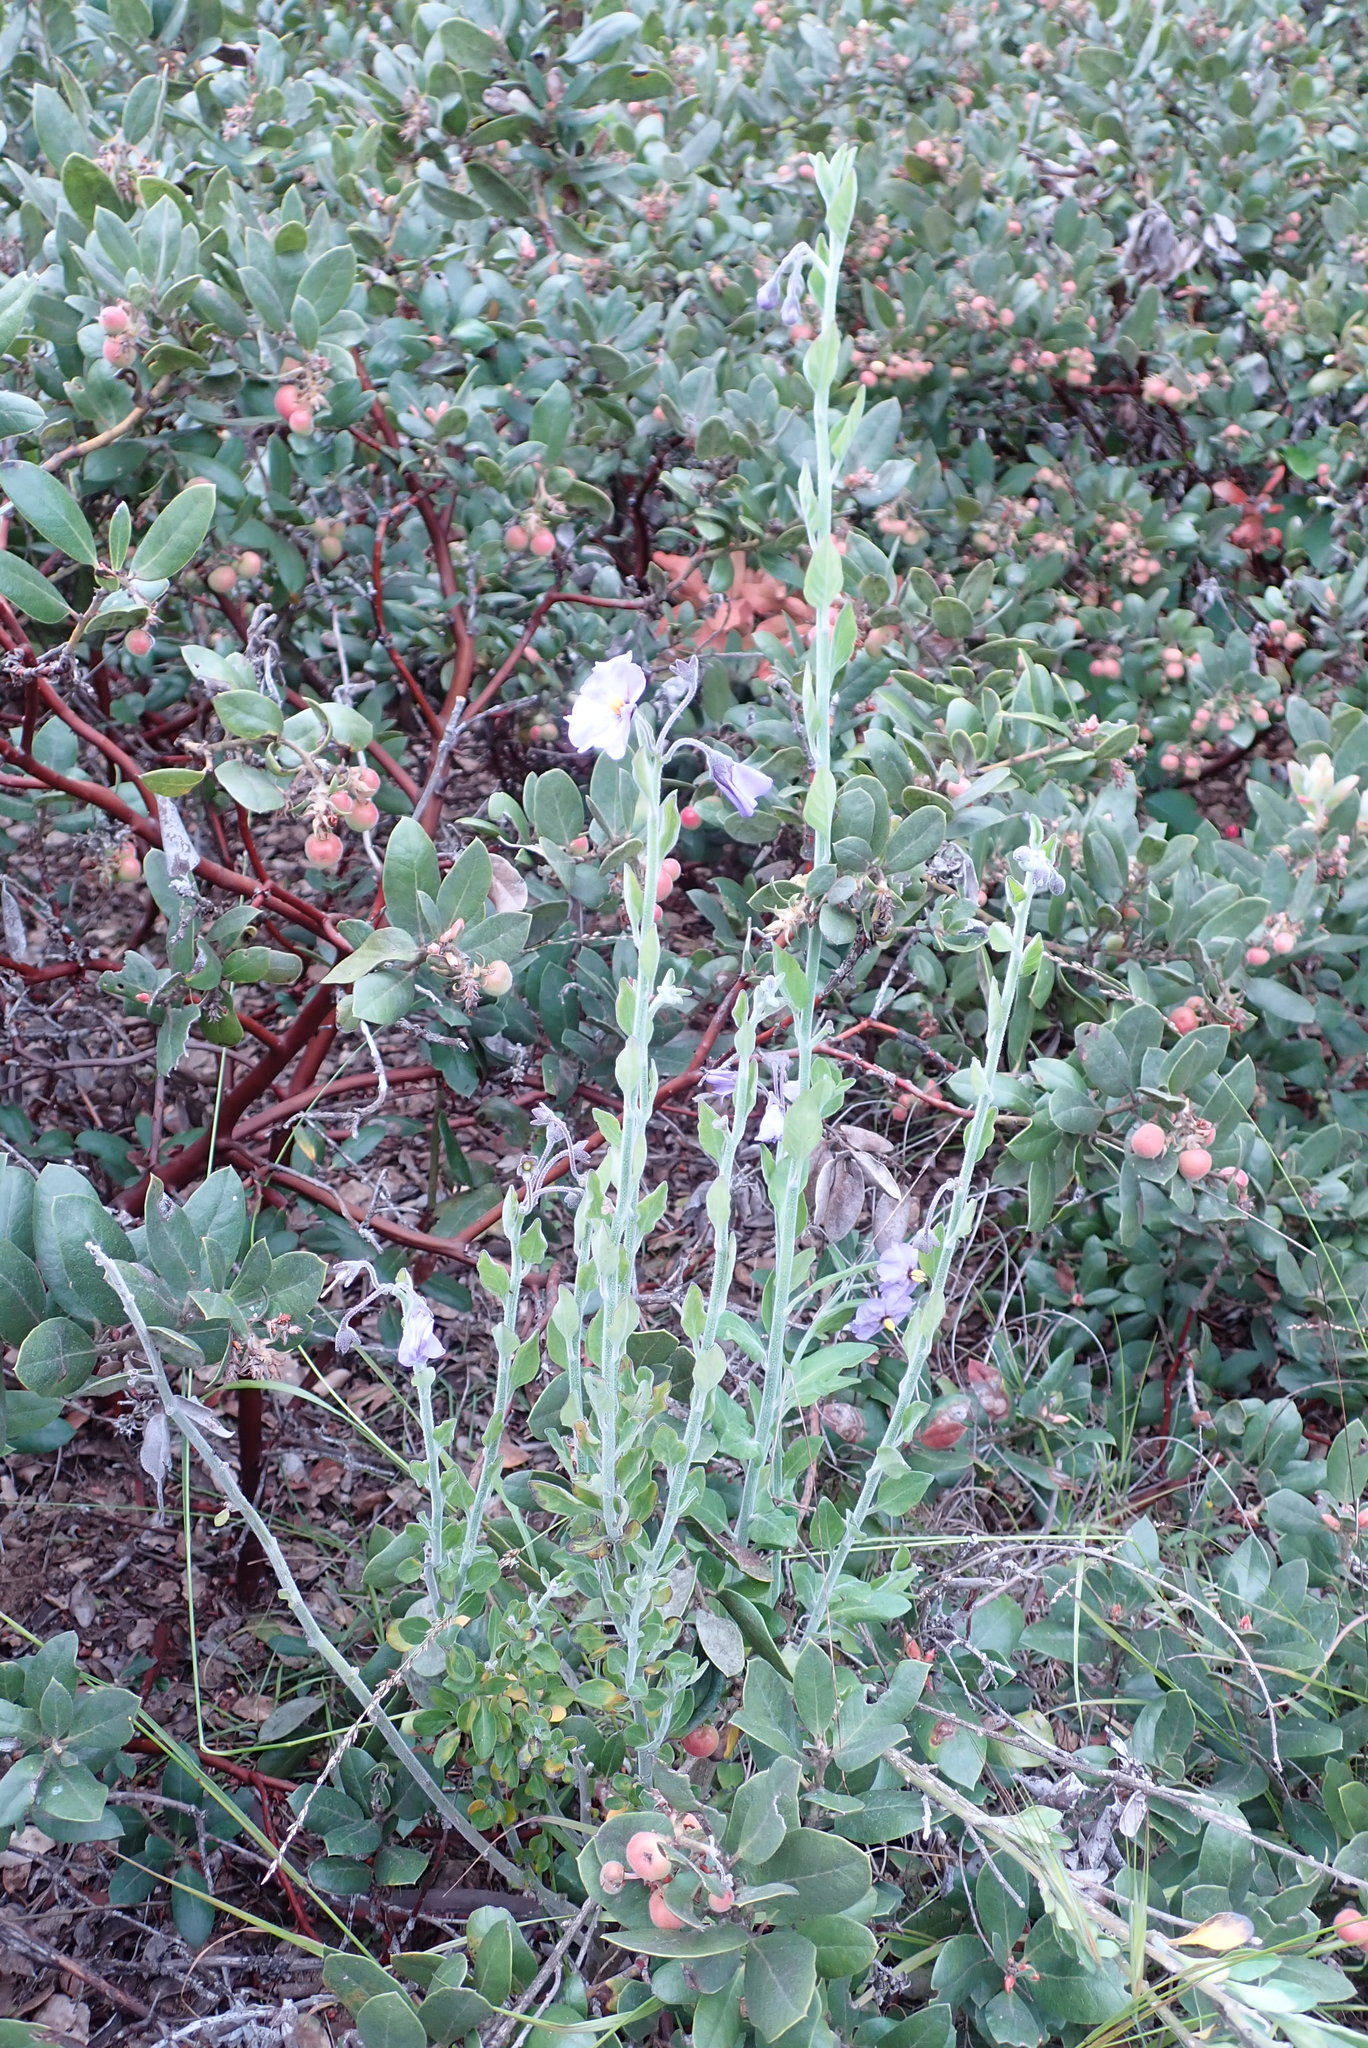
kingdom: Plantae
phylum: Tracheophyta
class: Magnoliopsida
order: Solanales
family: Solanaceae
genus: Solanum
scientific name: Solanum umbelliferum
